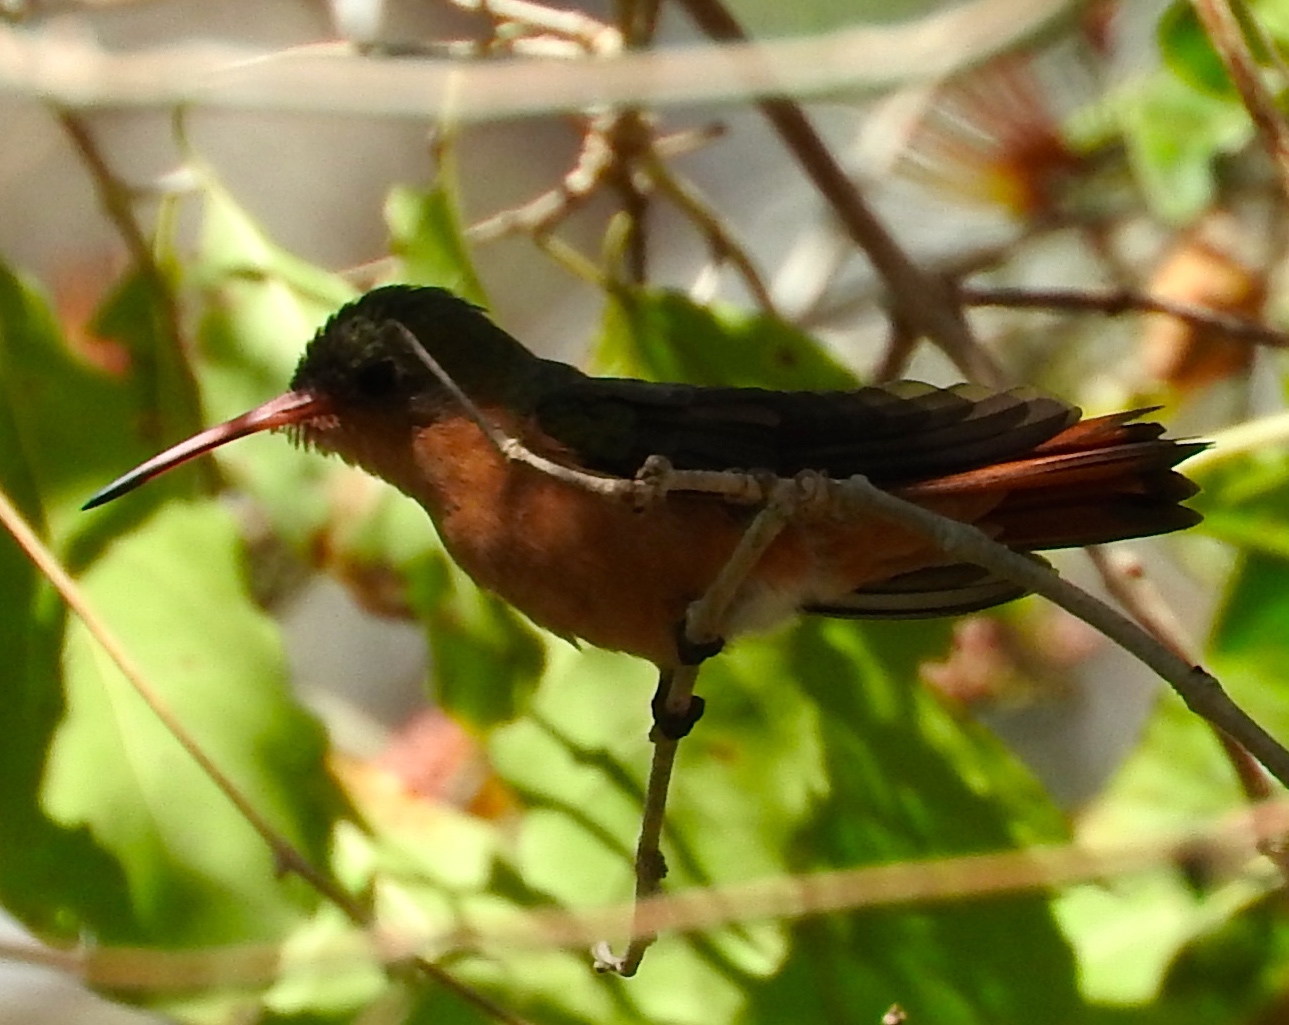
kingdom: Animalia
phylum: Chordata
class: Aves
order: Apodiformes
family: Trochilidae
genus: Amazilia
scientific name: Amazilia rutila
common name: Cinnamon hummingbird
